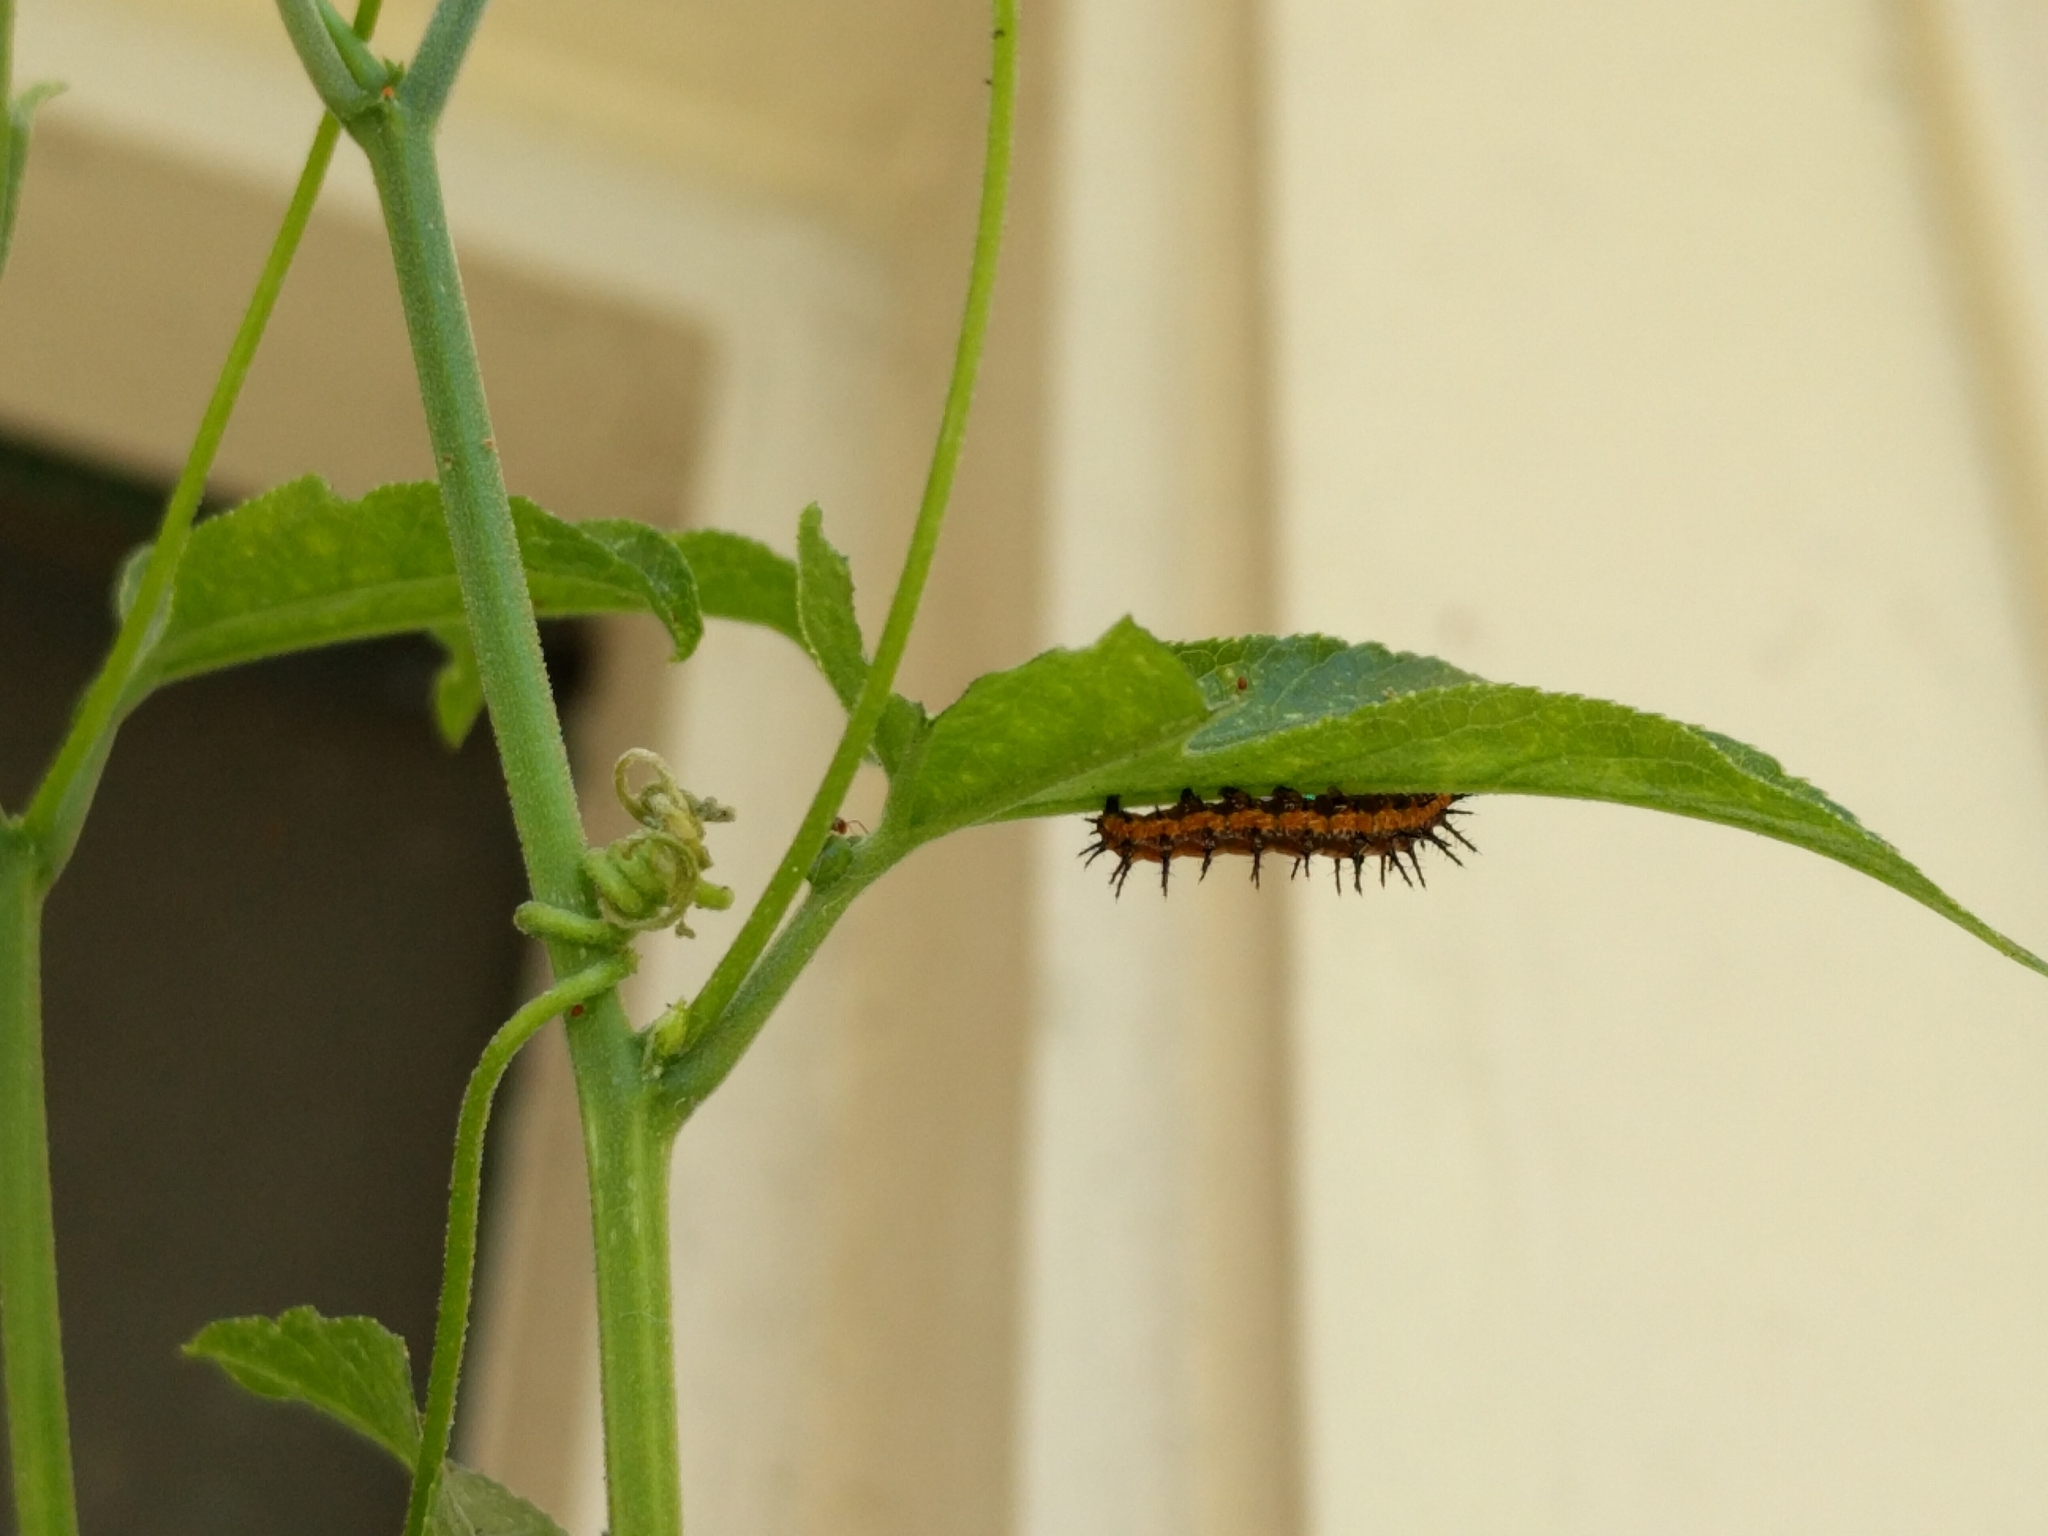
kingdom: Animalia
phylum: Arthropoda
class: Insecta
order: Lepidoptera
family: Nymphalidae
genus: Dione
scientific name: Dione vanillae
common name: Gulf fritillary
